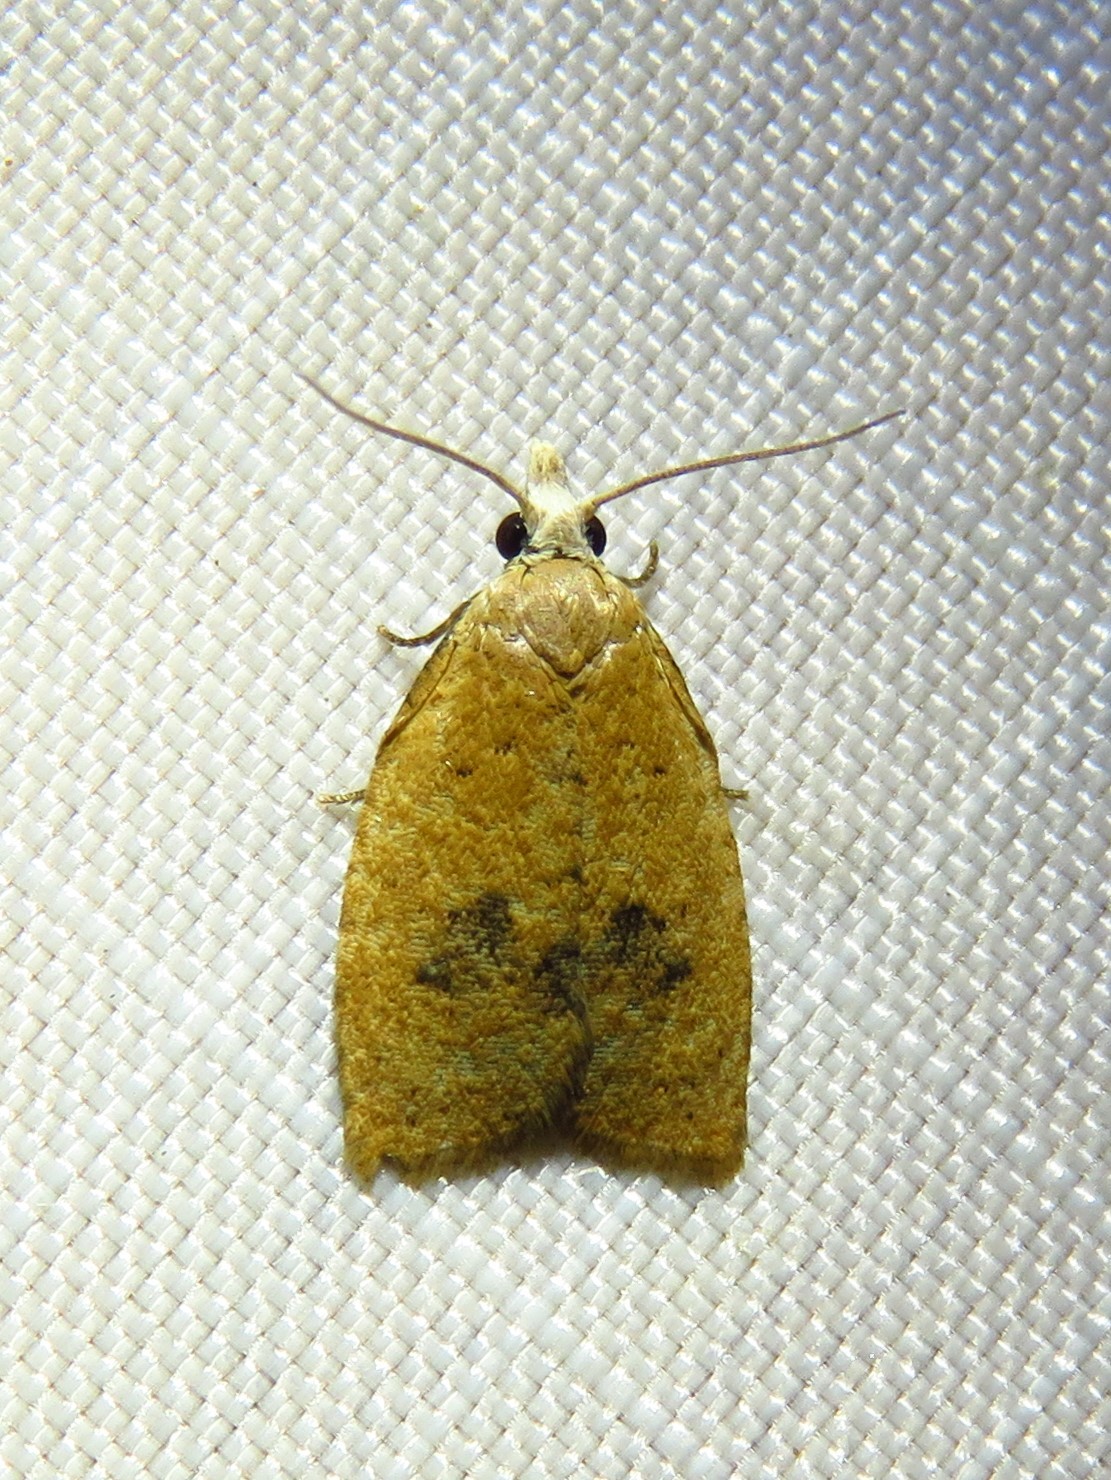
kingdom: Animalia
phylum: Arthropoda
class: Insecta
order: Lepidoptera
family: Tortricidae
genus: Sparganothoides
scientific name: Sparganothoides lentiginosana
